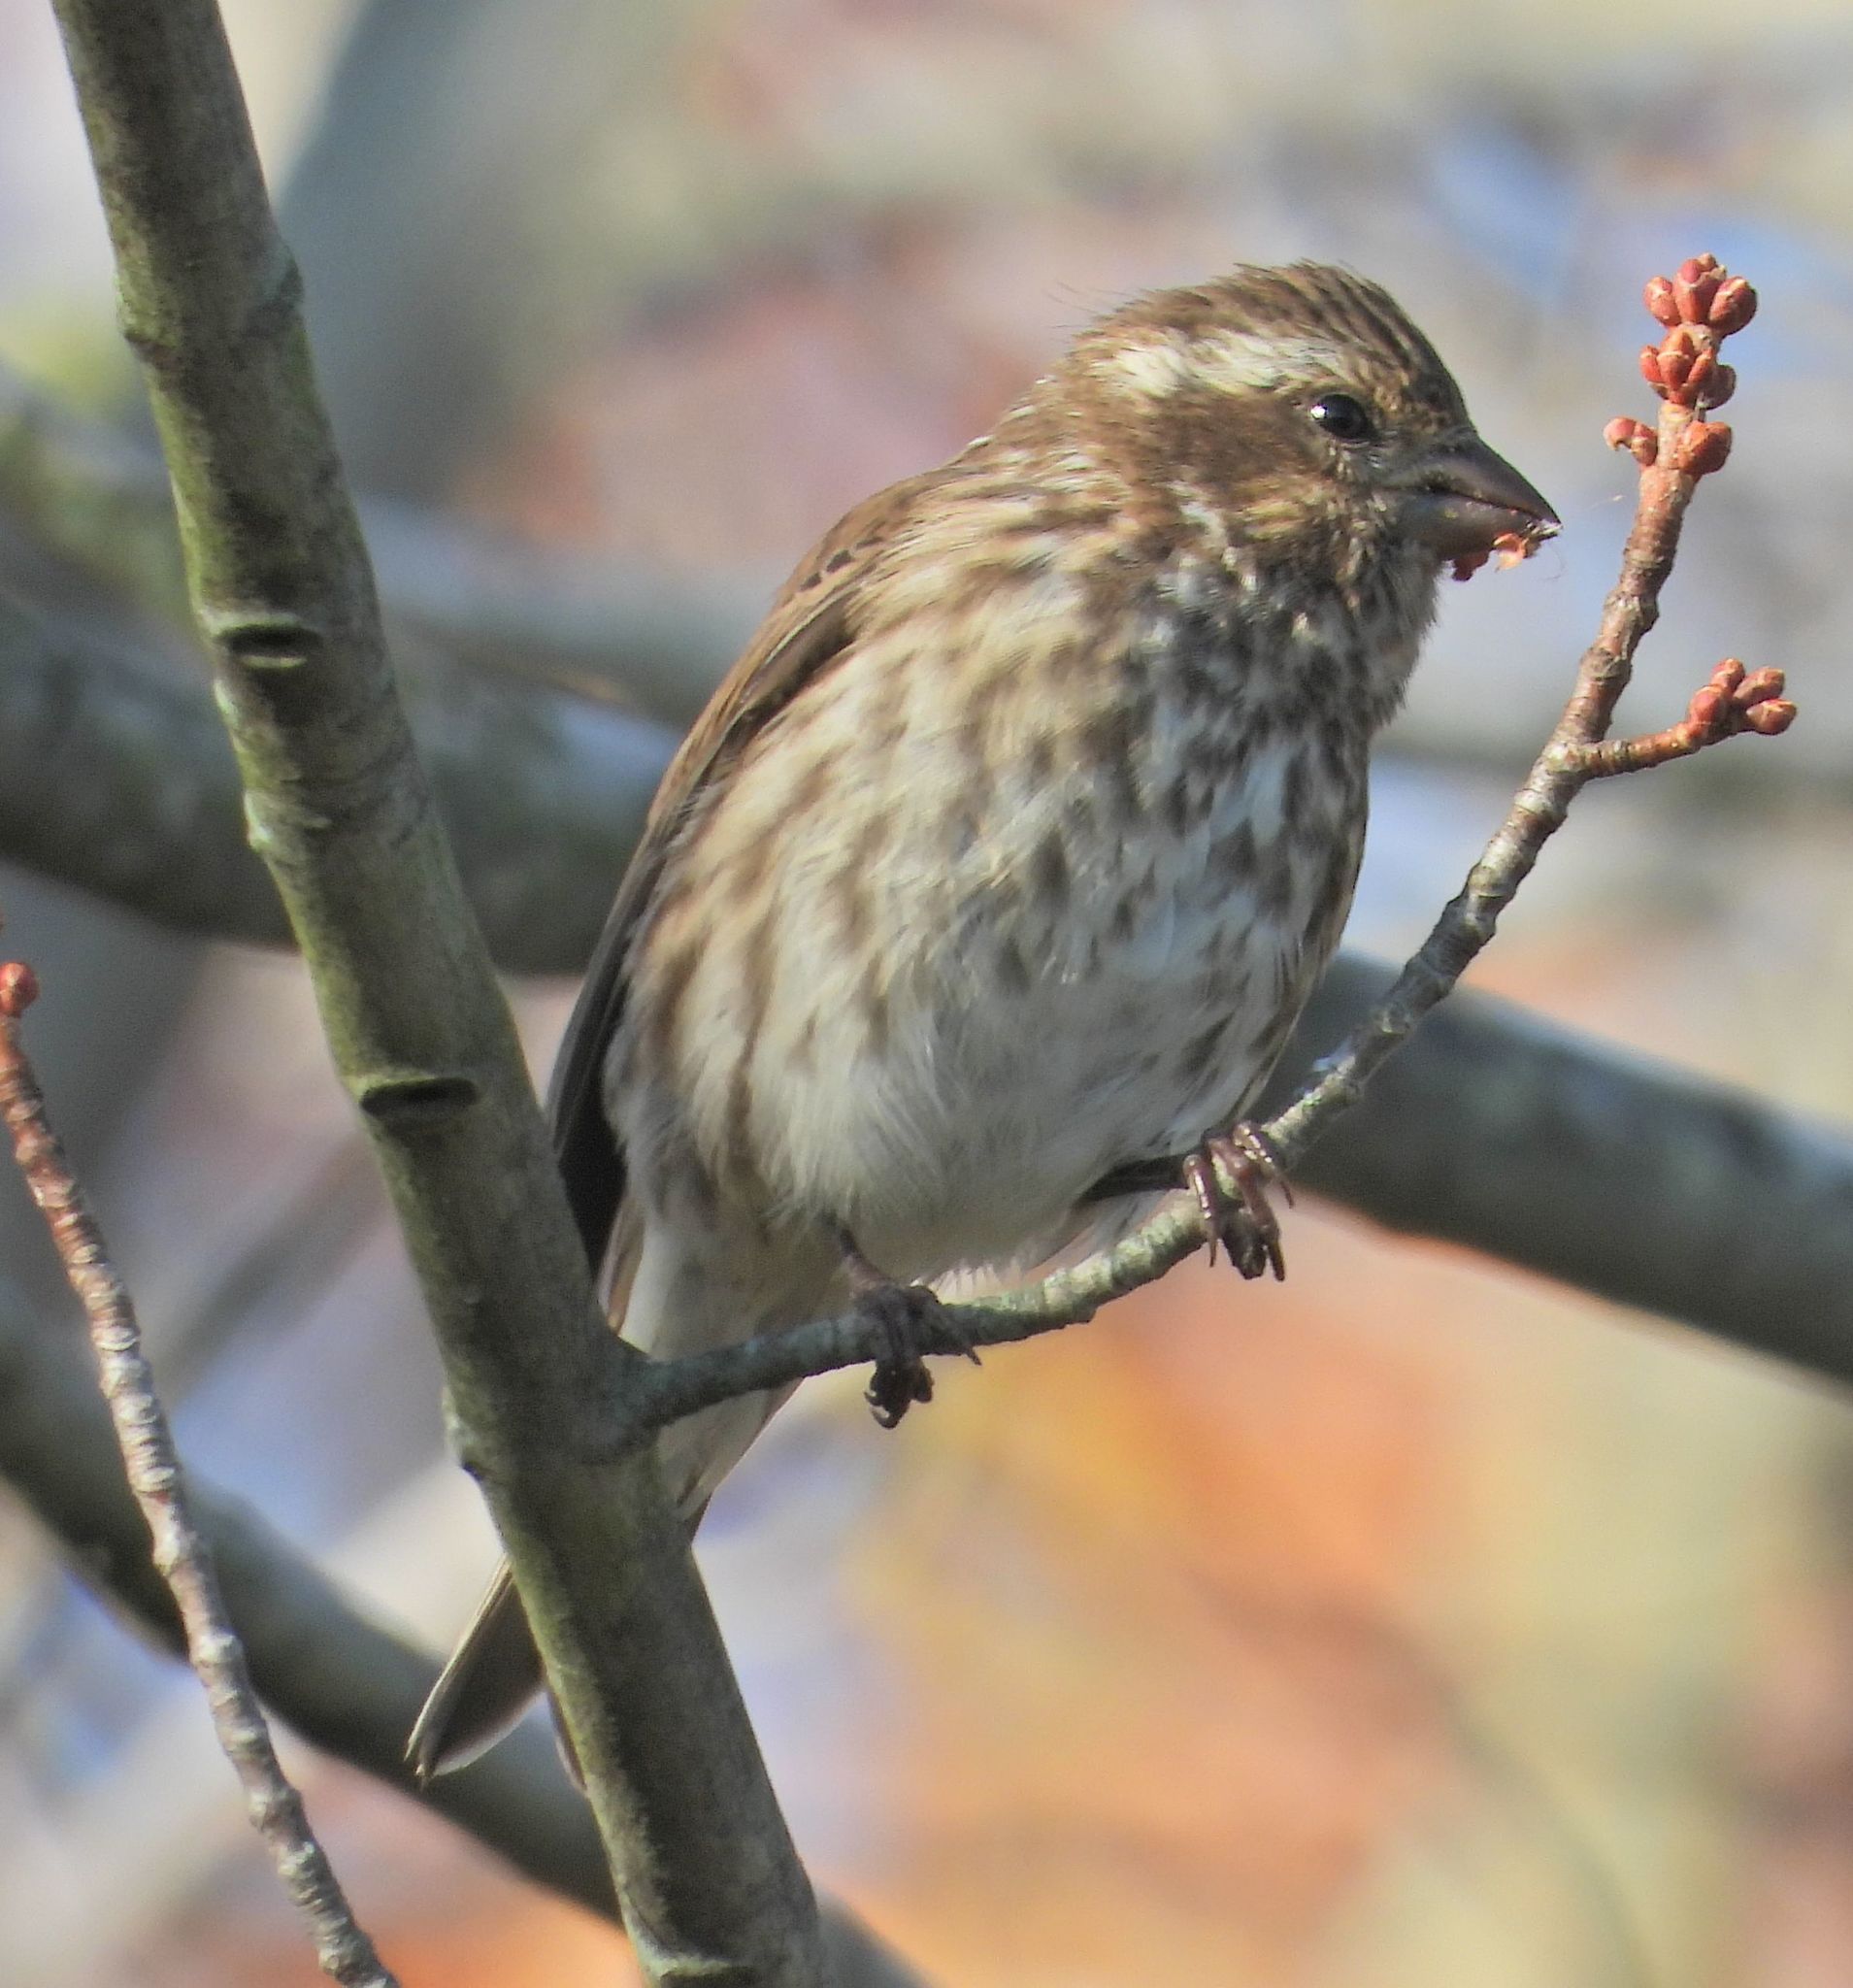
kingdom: Animalia
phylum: Chordata
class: Aves
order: Passeriformes
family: Fringillidae
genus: Haemorhous
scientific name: Haemorhous purpureus
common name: Purple finch
